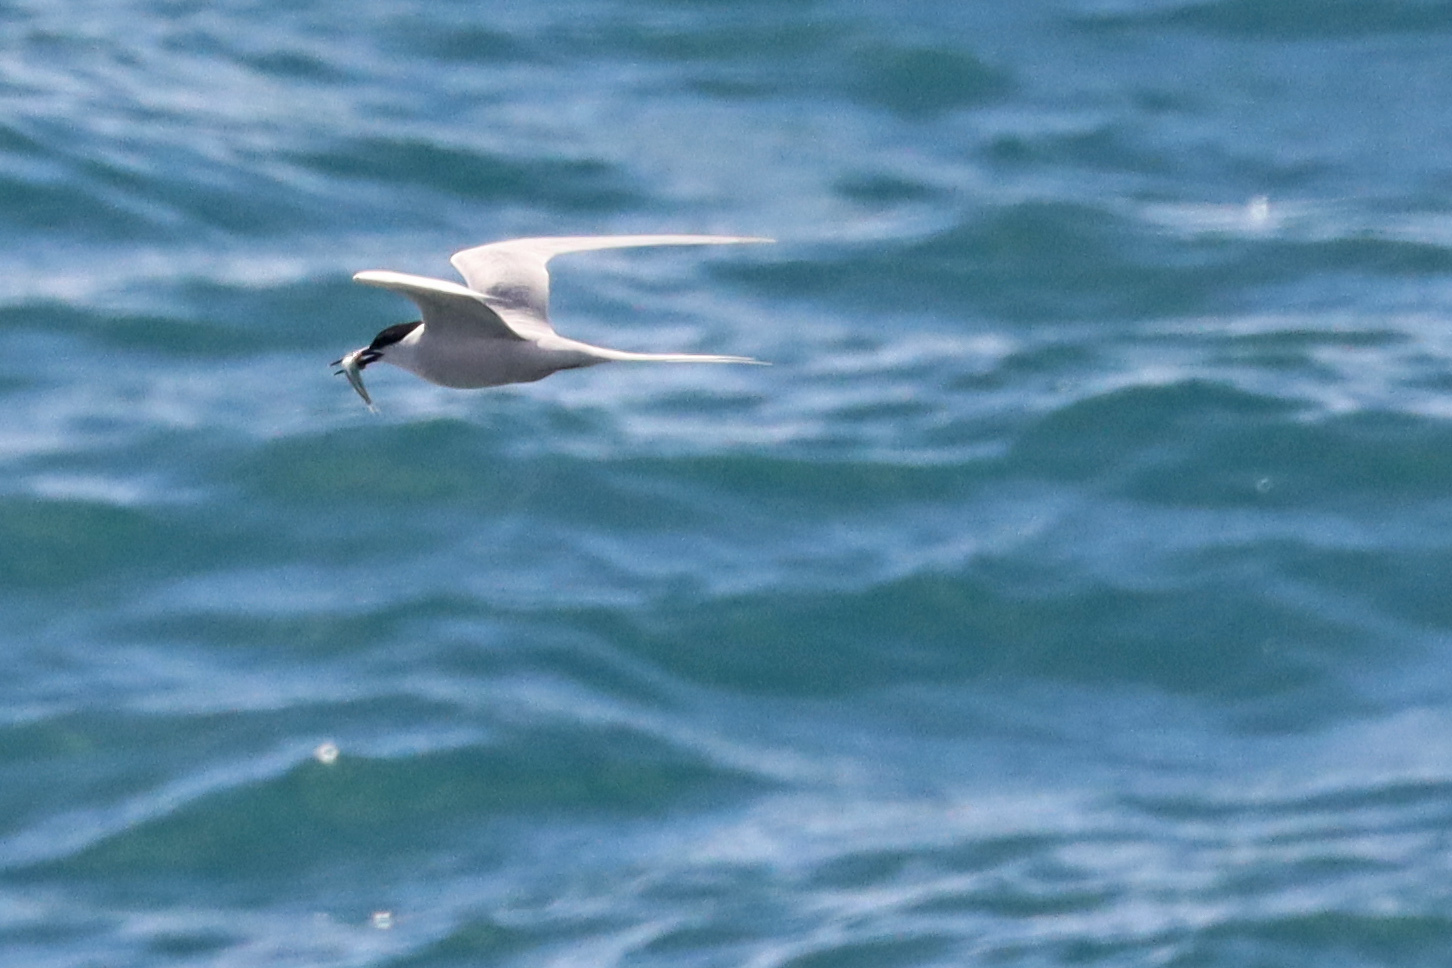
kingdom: Animalia
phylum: Chordata
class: Aves
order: Charadriiformes
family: Laridae
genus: Sterna
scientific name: Sterna dougallii
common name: Roseate tern
